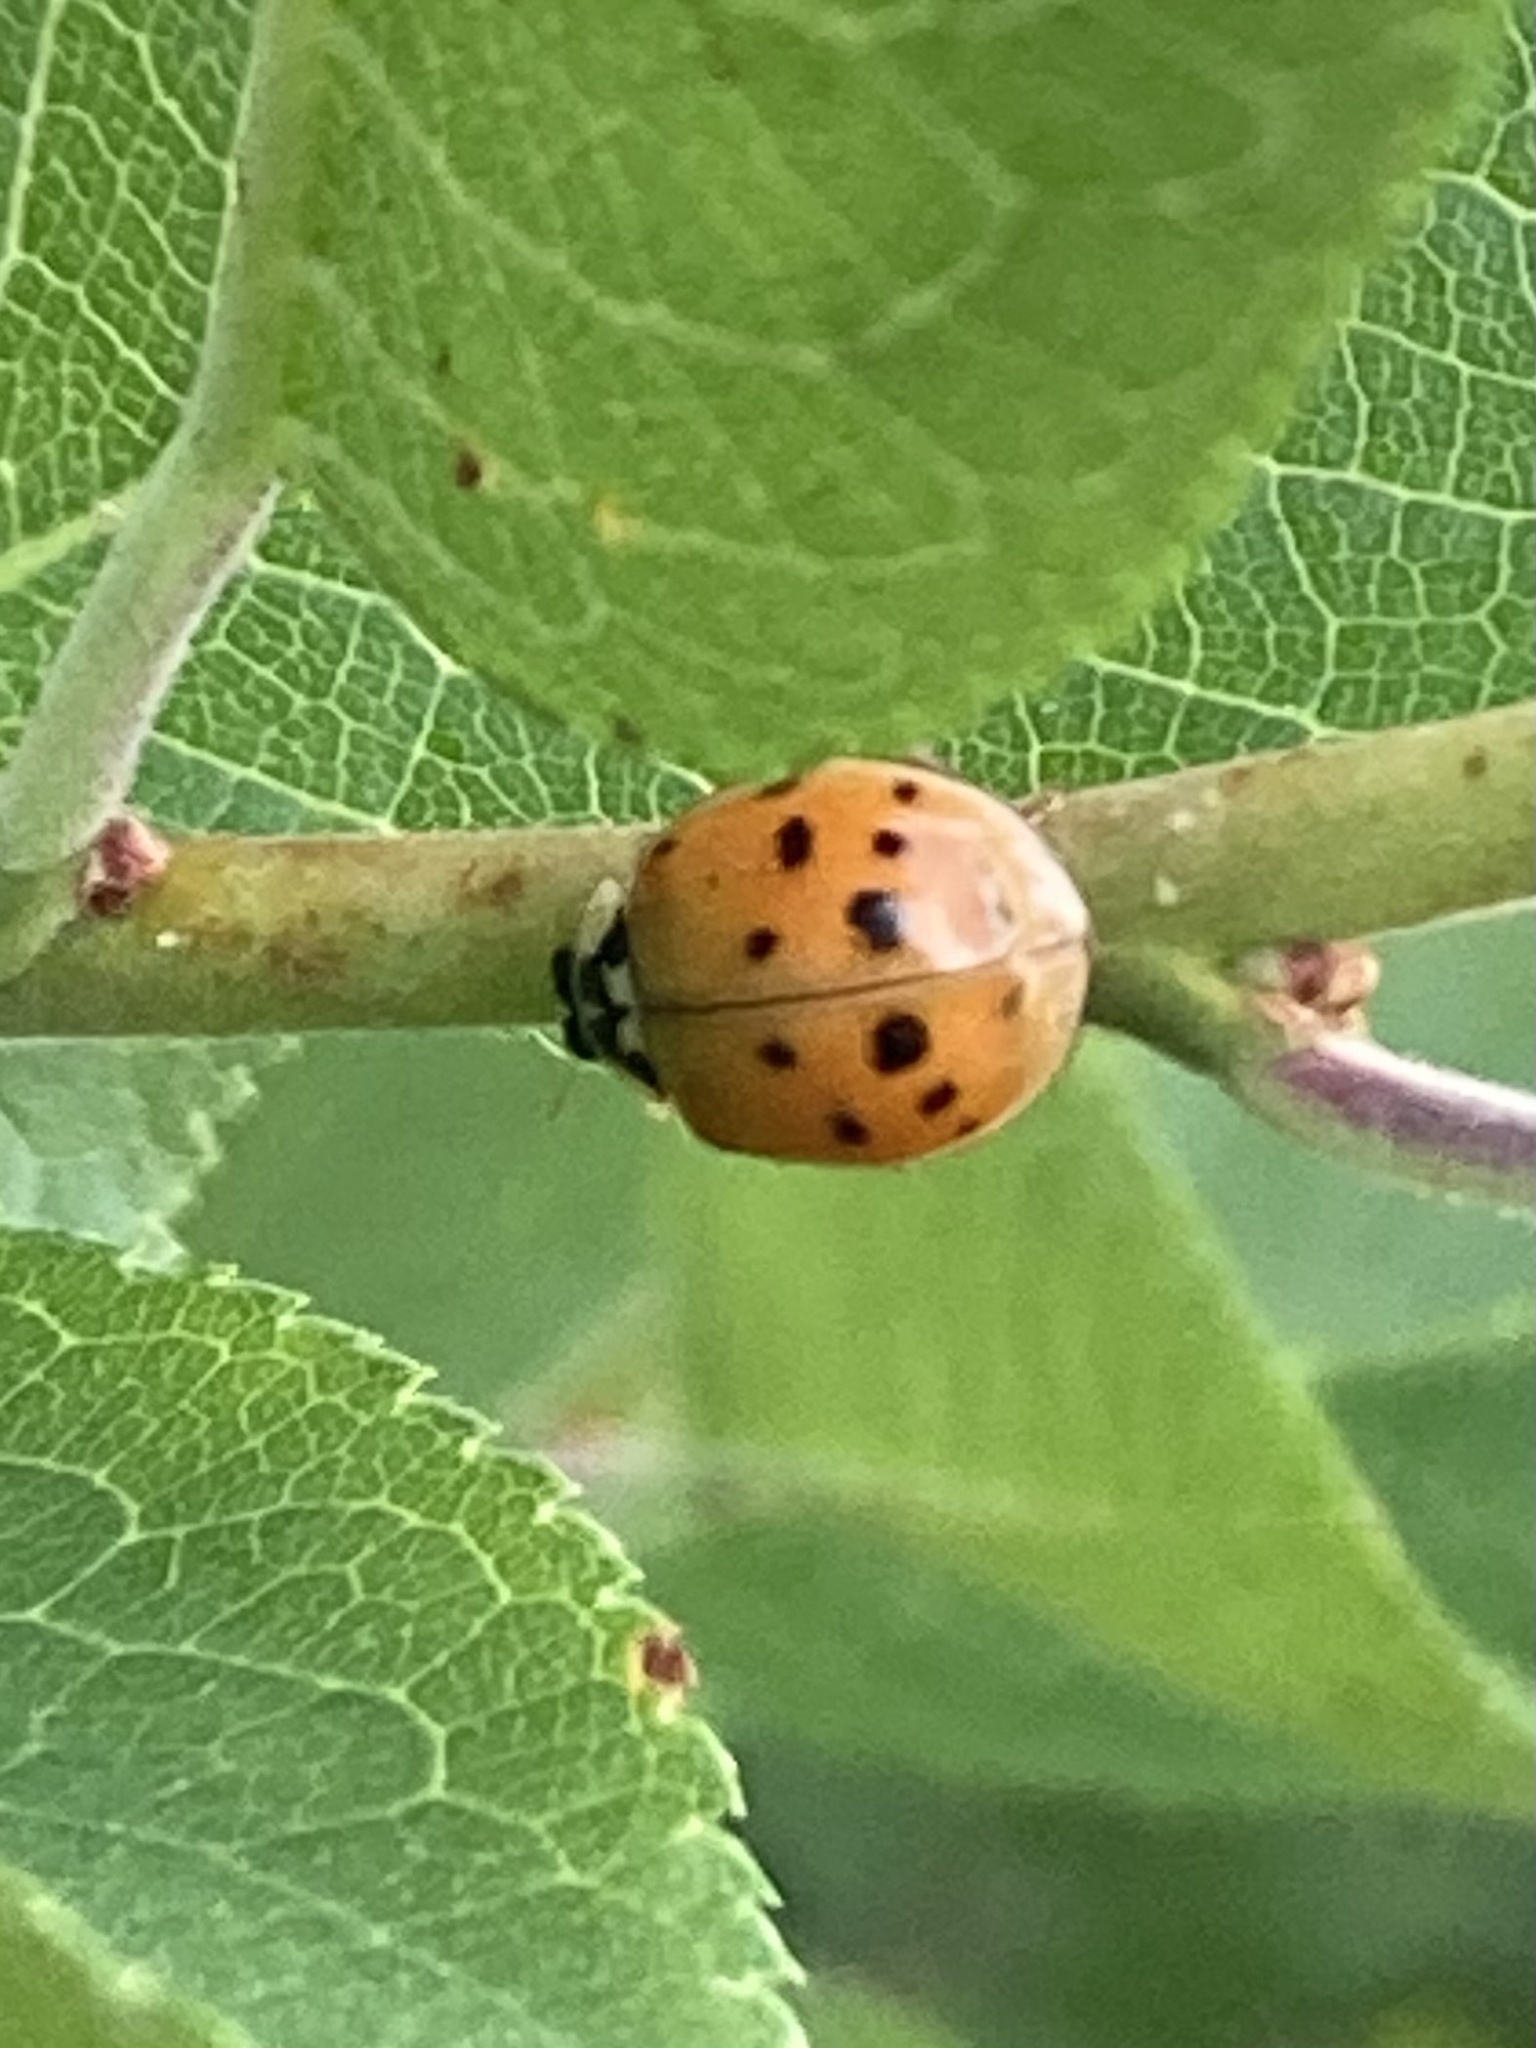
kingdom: Animalia
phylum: Arthropoda
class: Insecta
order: Coleoptera
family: Coccinellidae
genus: Harmonia
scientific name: Harmonia axyridis
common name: Harlequin ladybird
